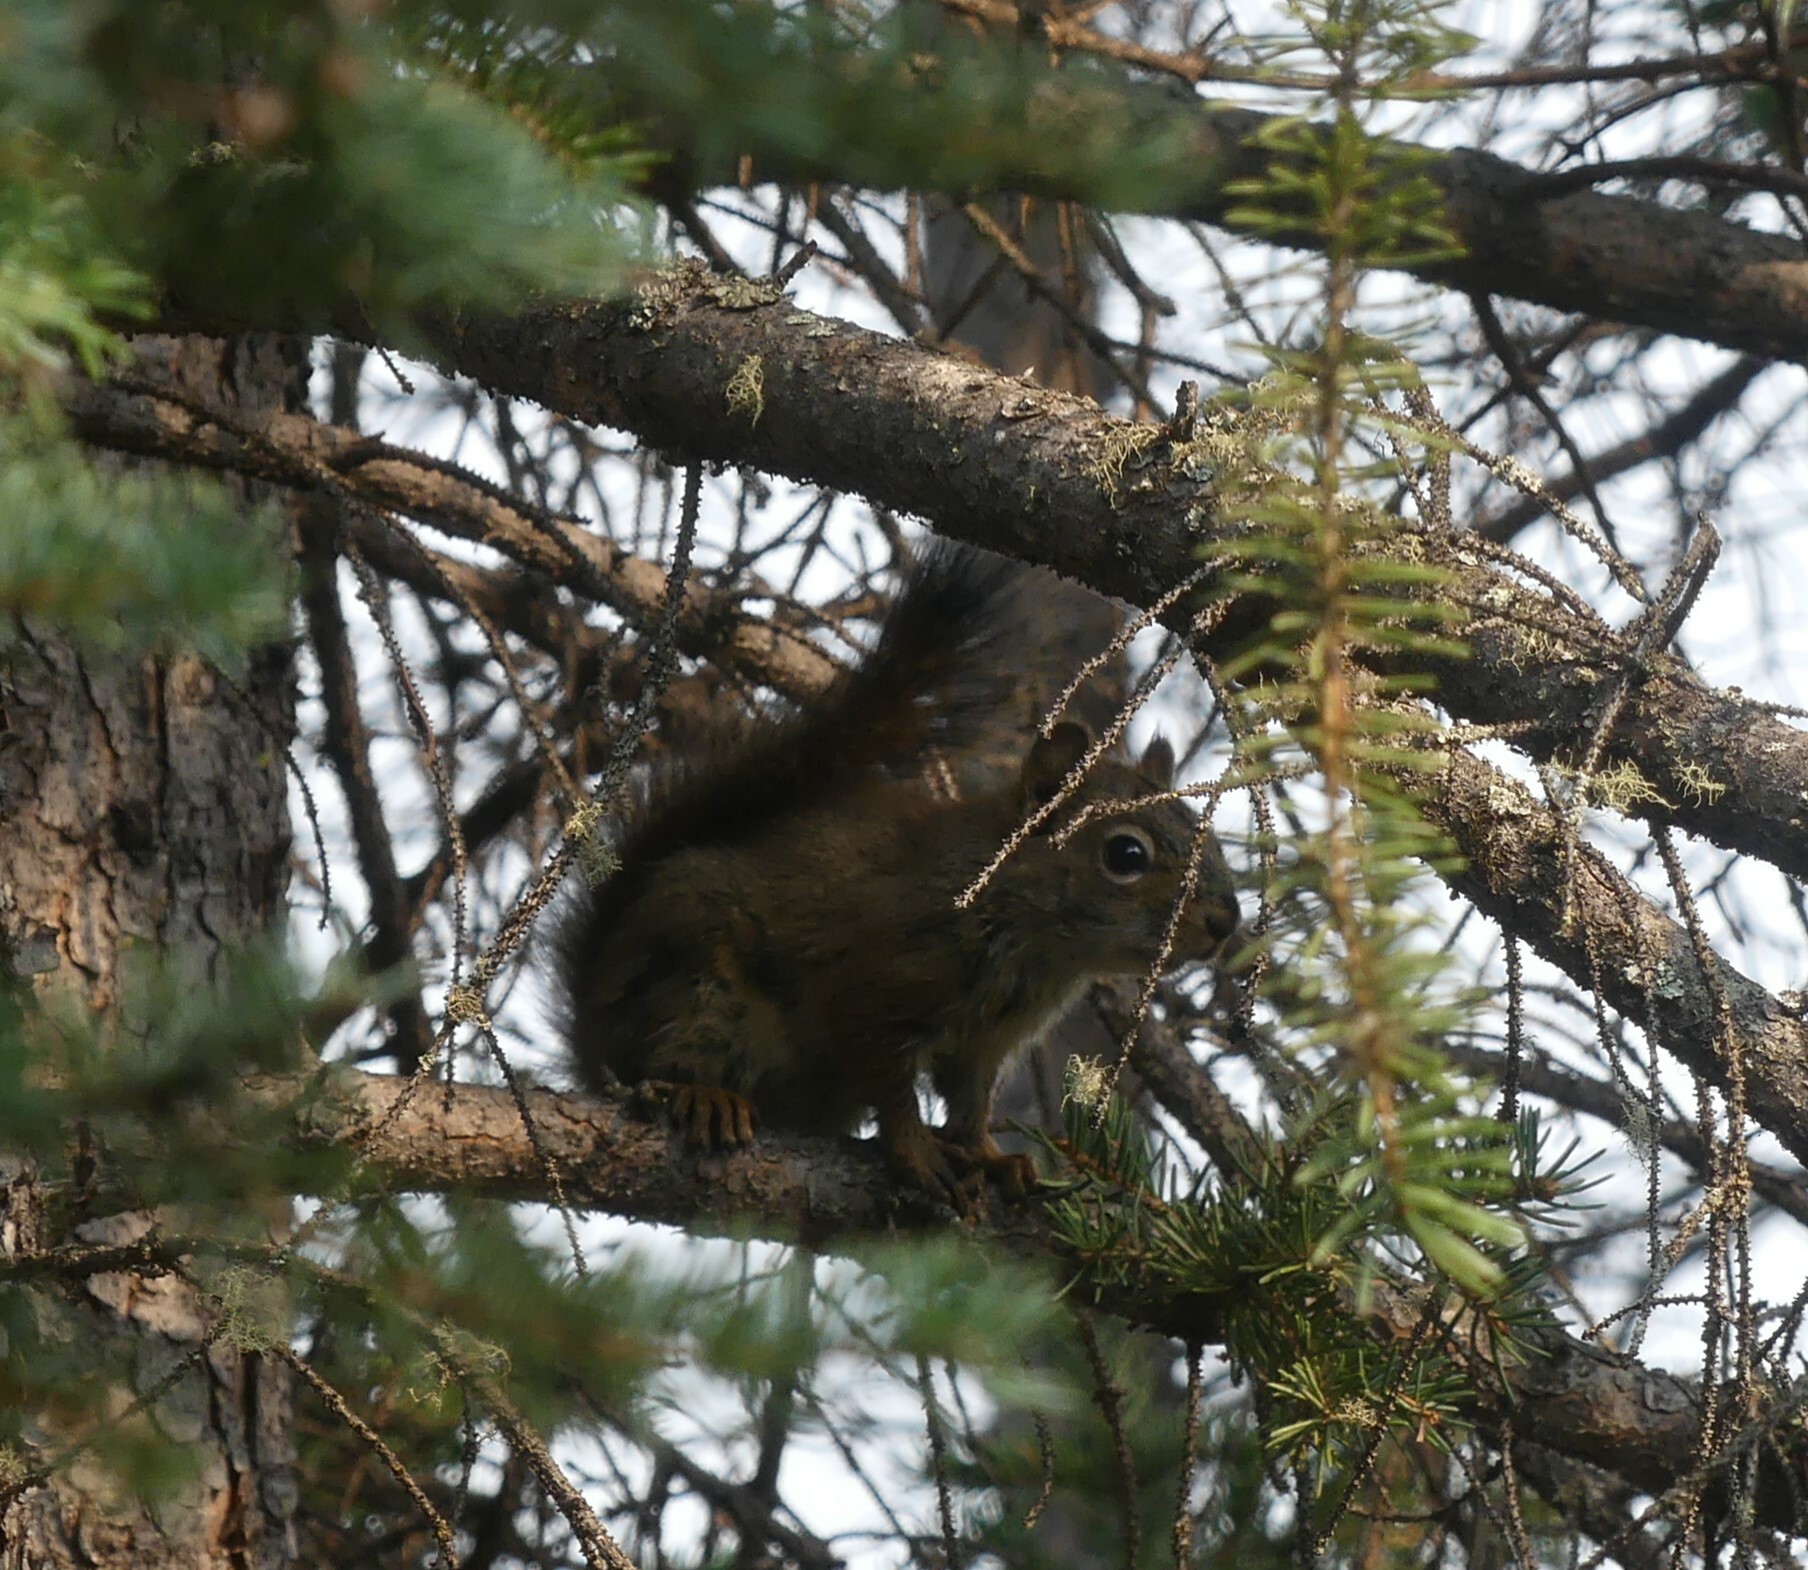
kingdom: Animalia
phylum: Chordata
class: Mammalia
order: Rodentia
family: Sciuridae
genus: Tamiasciurus
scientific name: Tamiasciurus hudsonicus
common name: Red squirrel
